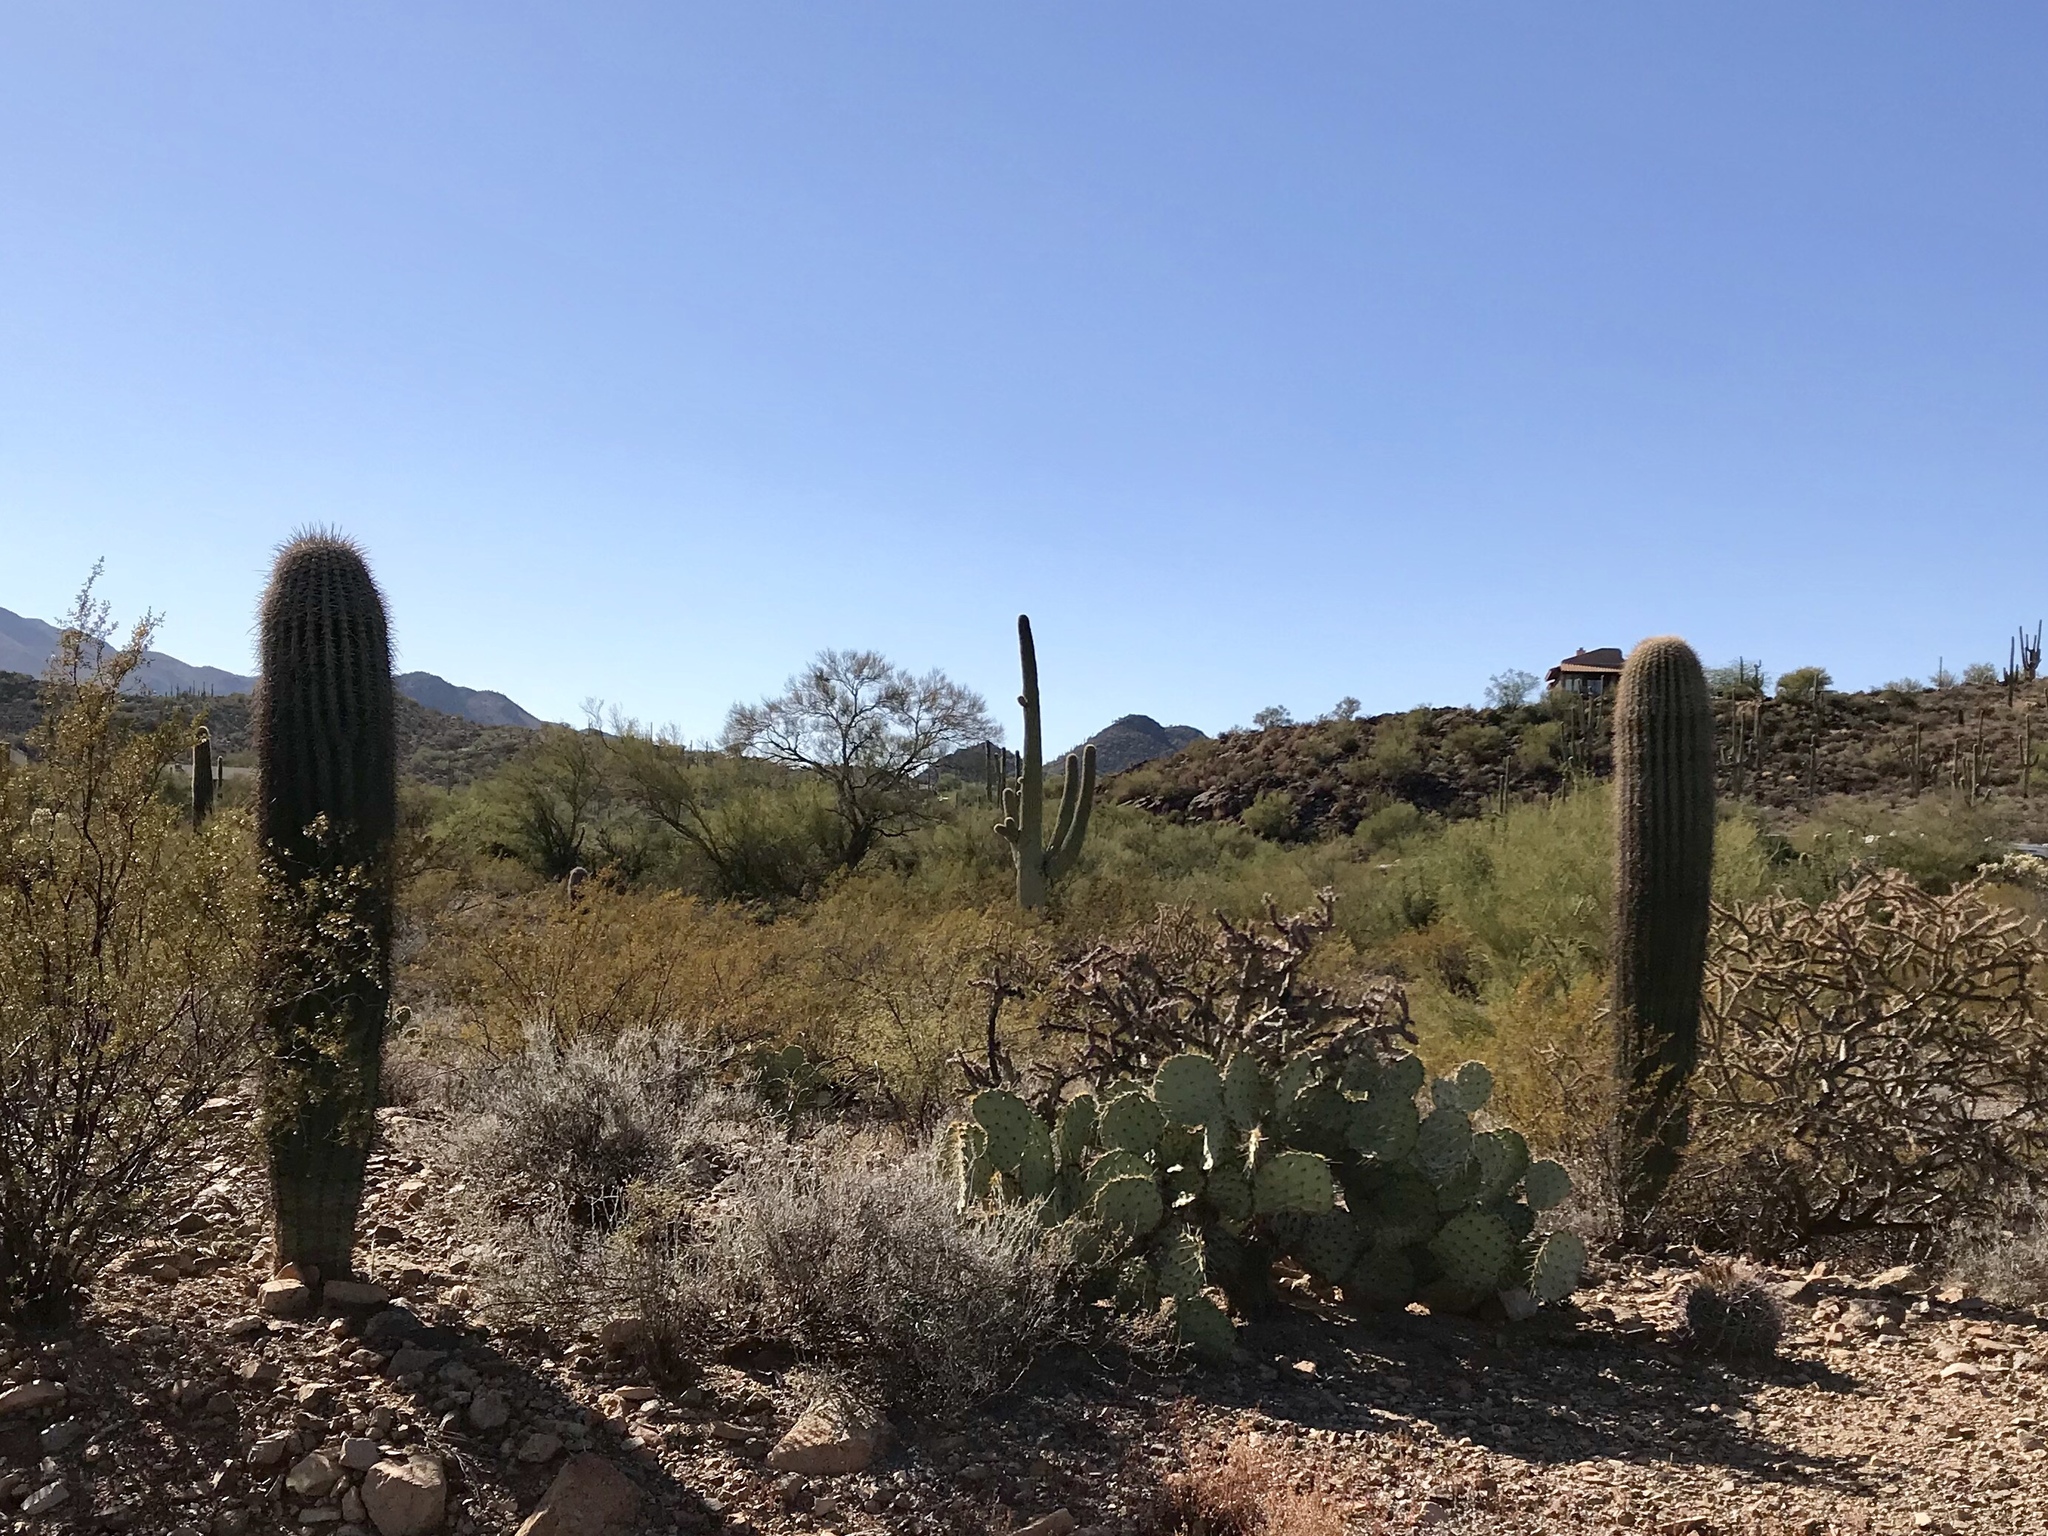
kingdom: Plantae
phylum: Tracheophyta
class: Magnoliopsida
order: Caryophyllales
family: Cactaceae
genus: Carnegiea
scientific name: Carnegiea gigantea
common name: Saguaro
